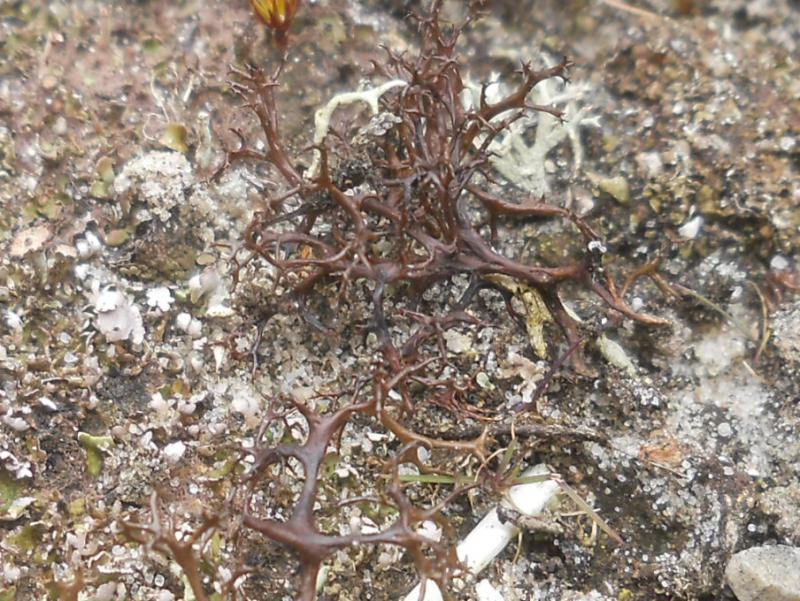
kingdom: Fungi
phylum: Ascomycota
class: Lecanoromycetes
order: Lecanorales
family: Parmeliaceae
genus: Cetraria
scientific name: Cetraria aculeata
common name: Spiny heath lichen
